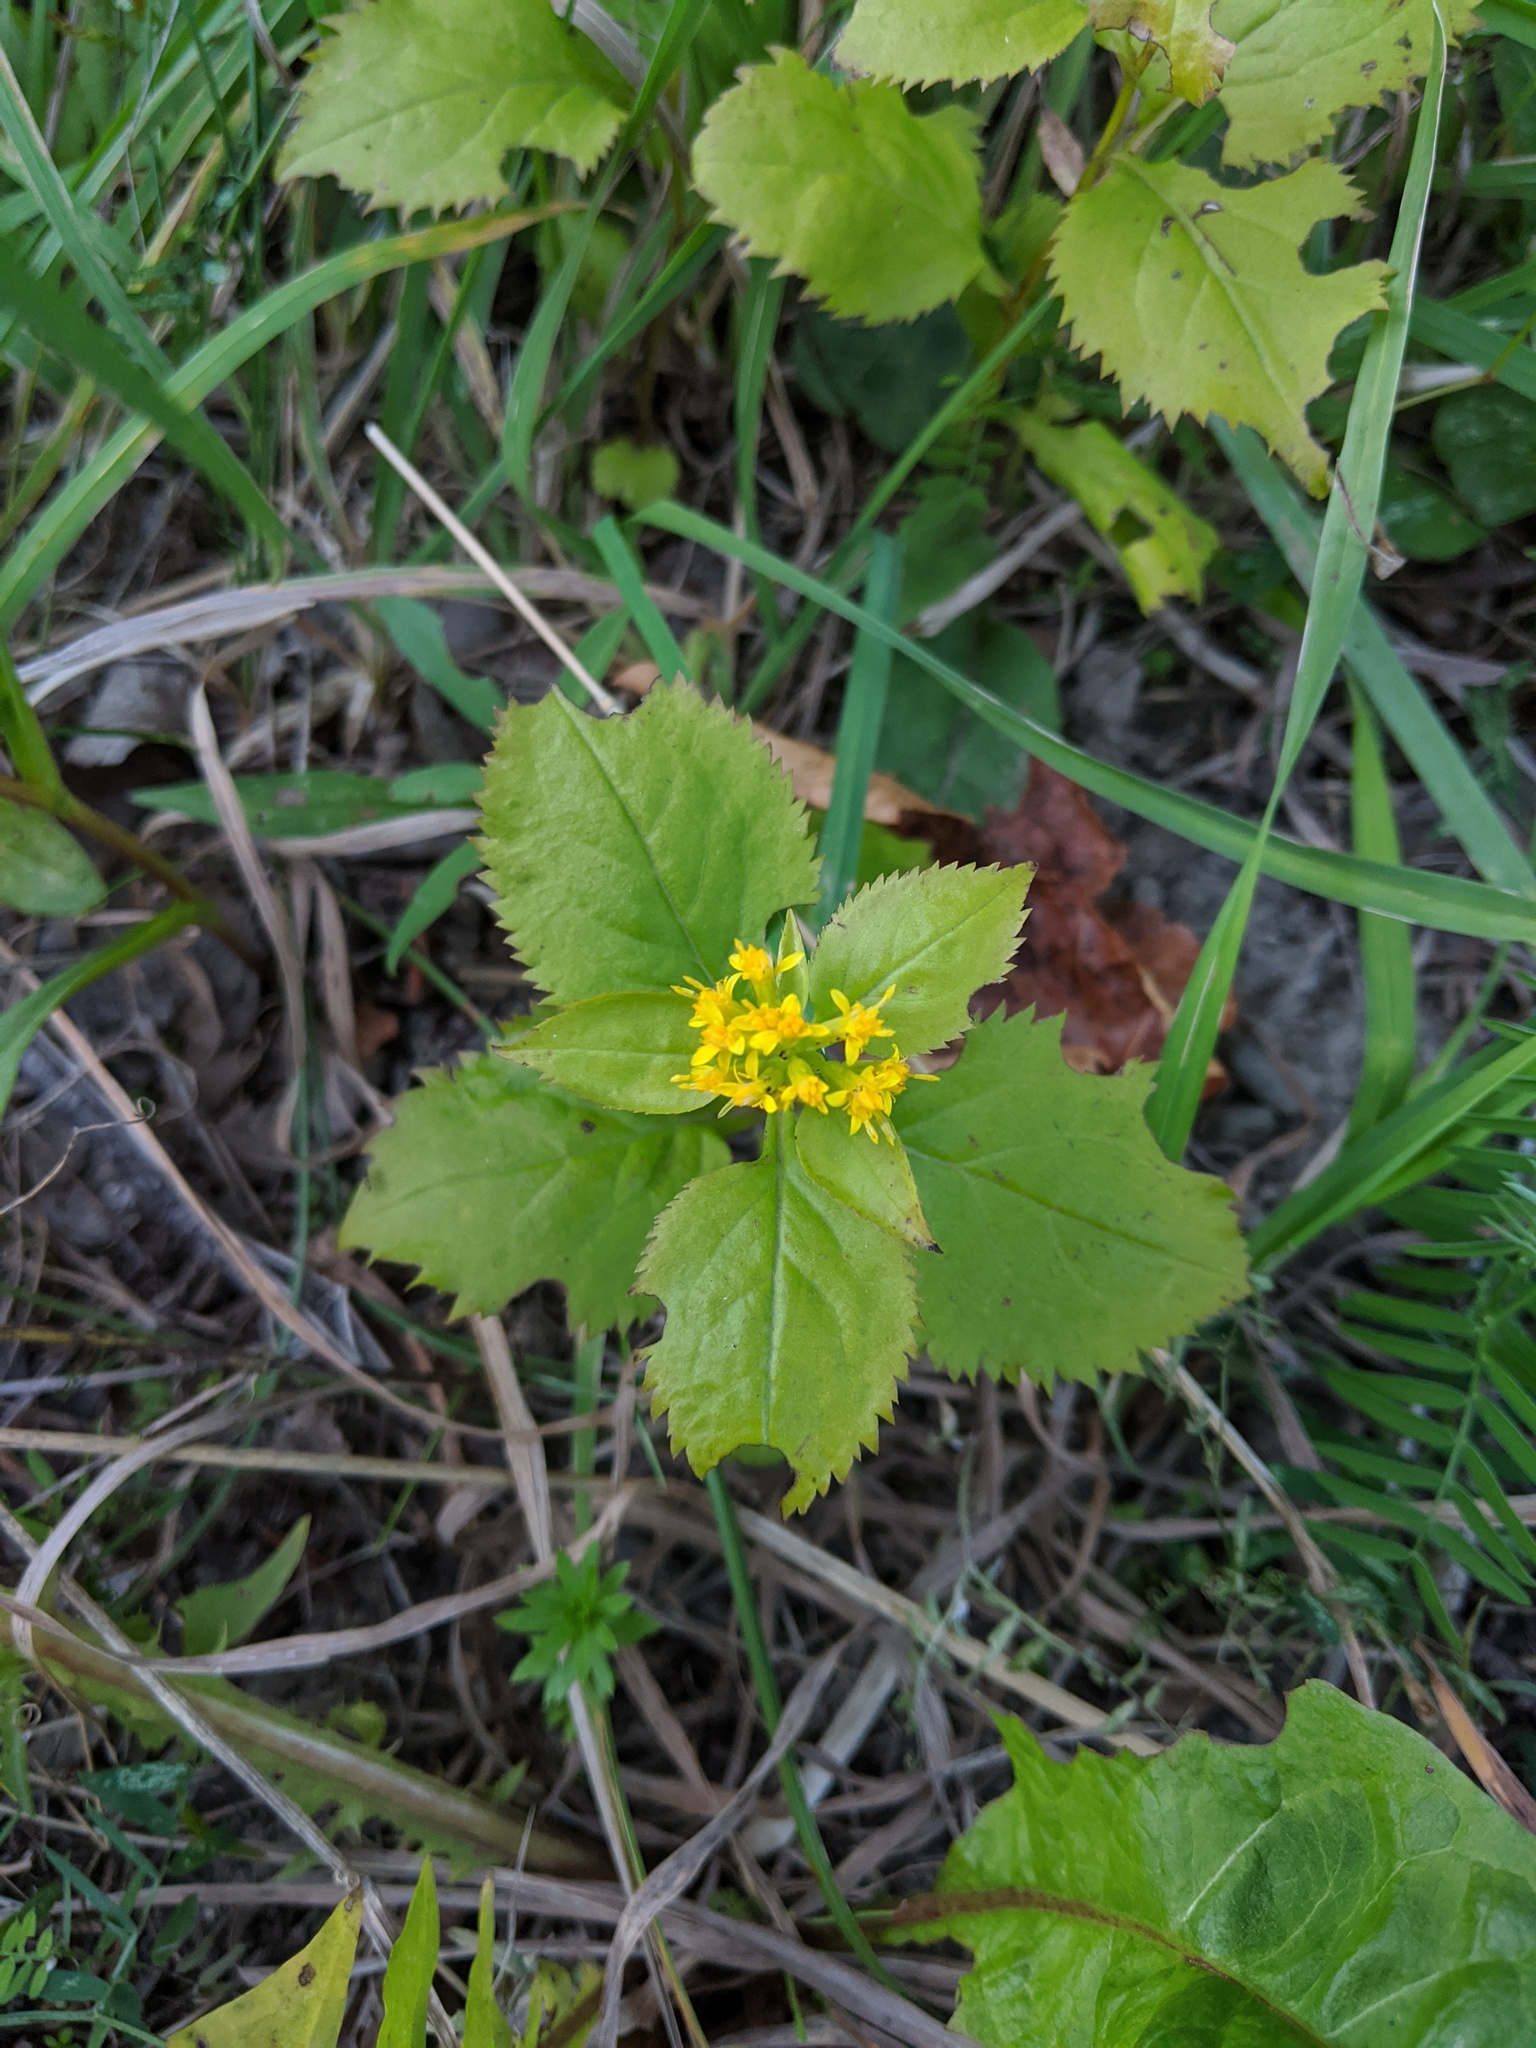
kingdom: Plantae
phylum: Tracheophyta
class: Magnoliopsida
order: Asterales
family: Asteraceae
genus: Solidago
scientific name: Solidago flexicaulis
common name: Zig-zag goldenrod
